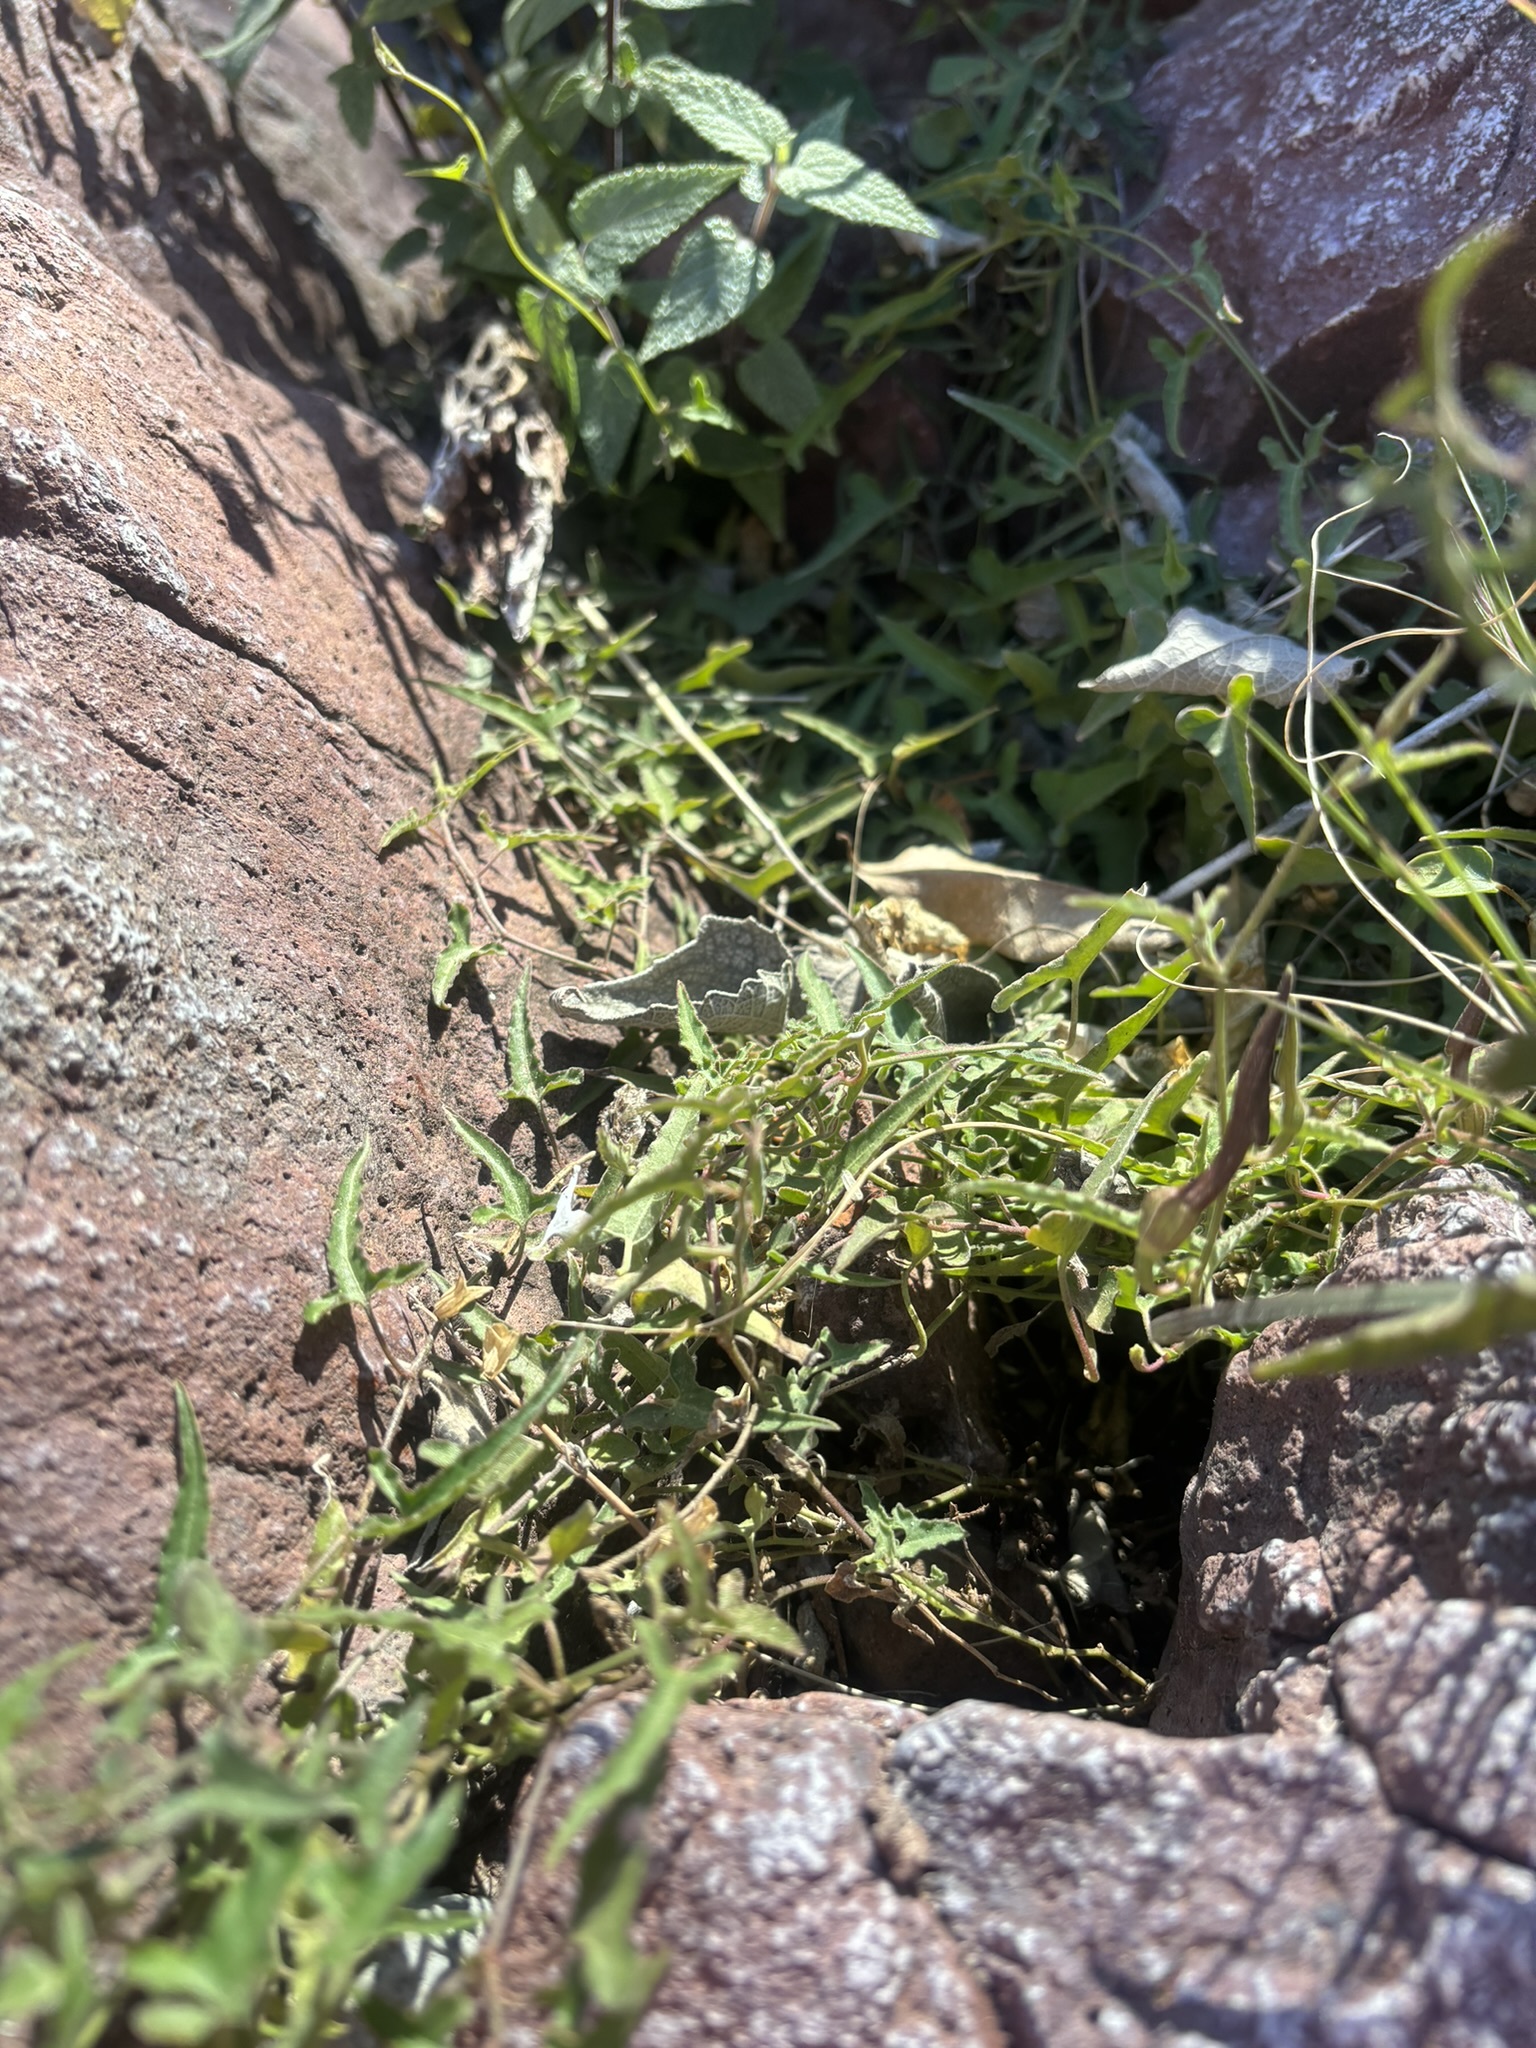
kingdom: Plantae
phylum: Tracheophyta
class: Magnoliopsida
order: Piperales
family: Aristolochiaceae
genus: Aristolochia
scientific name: Aristolochia watsonii
